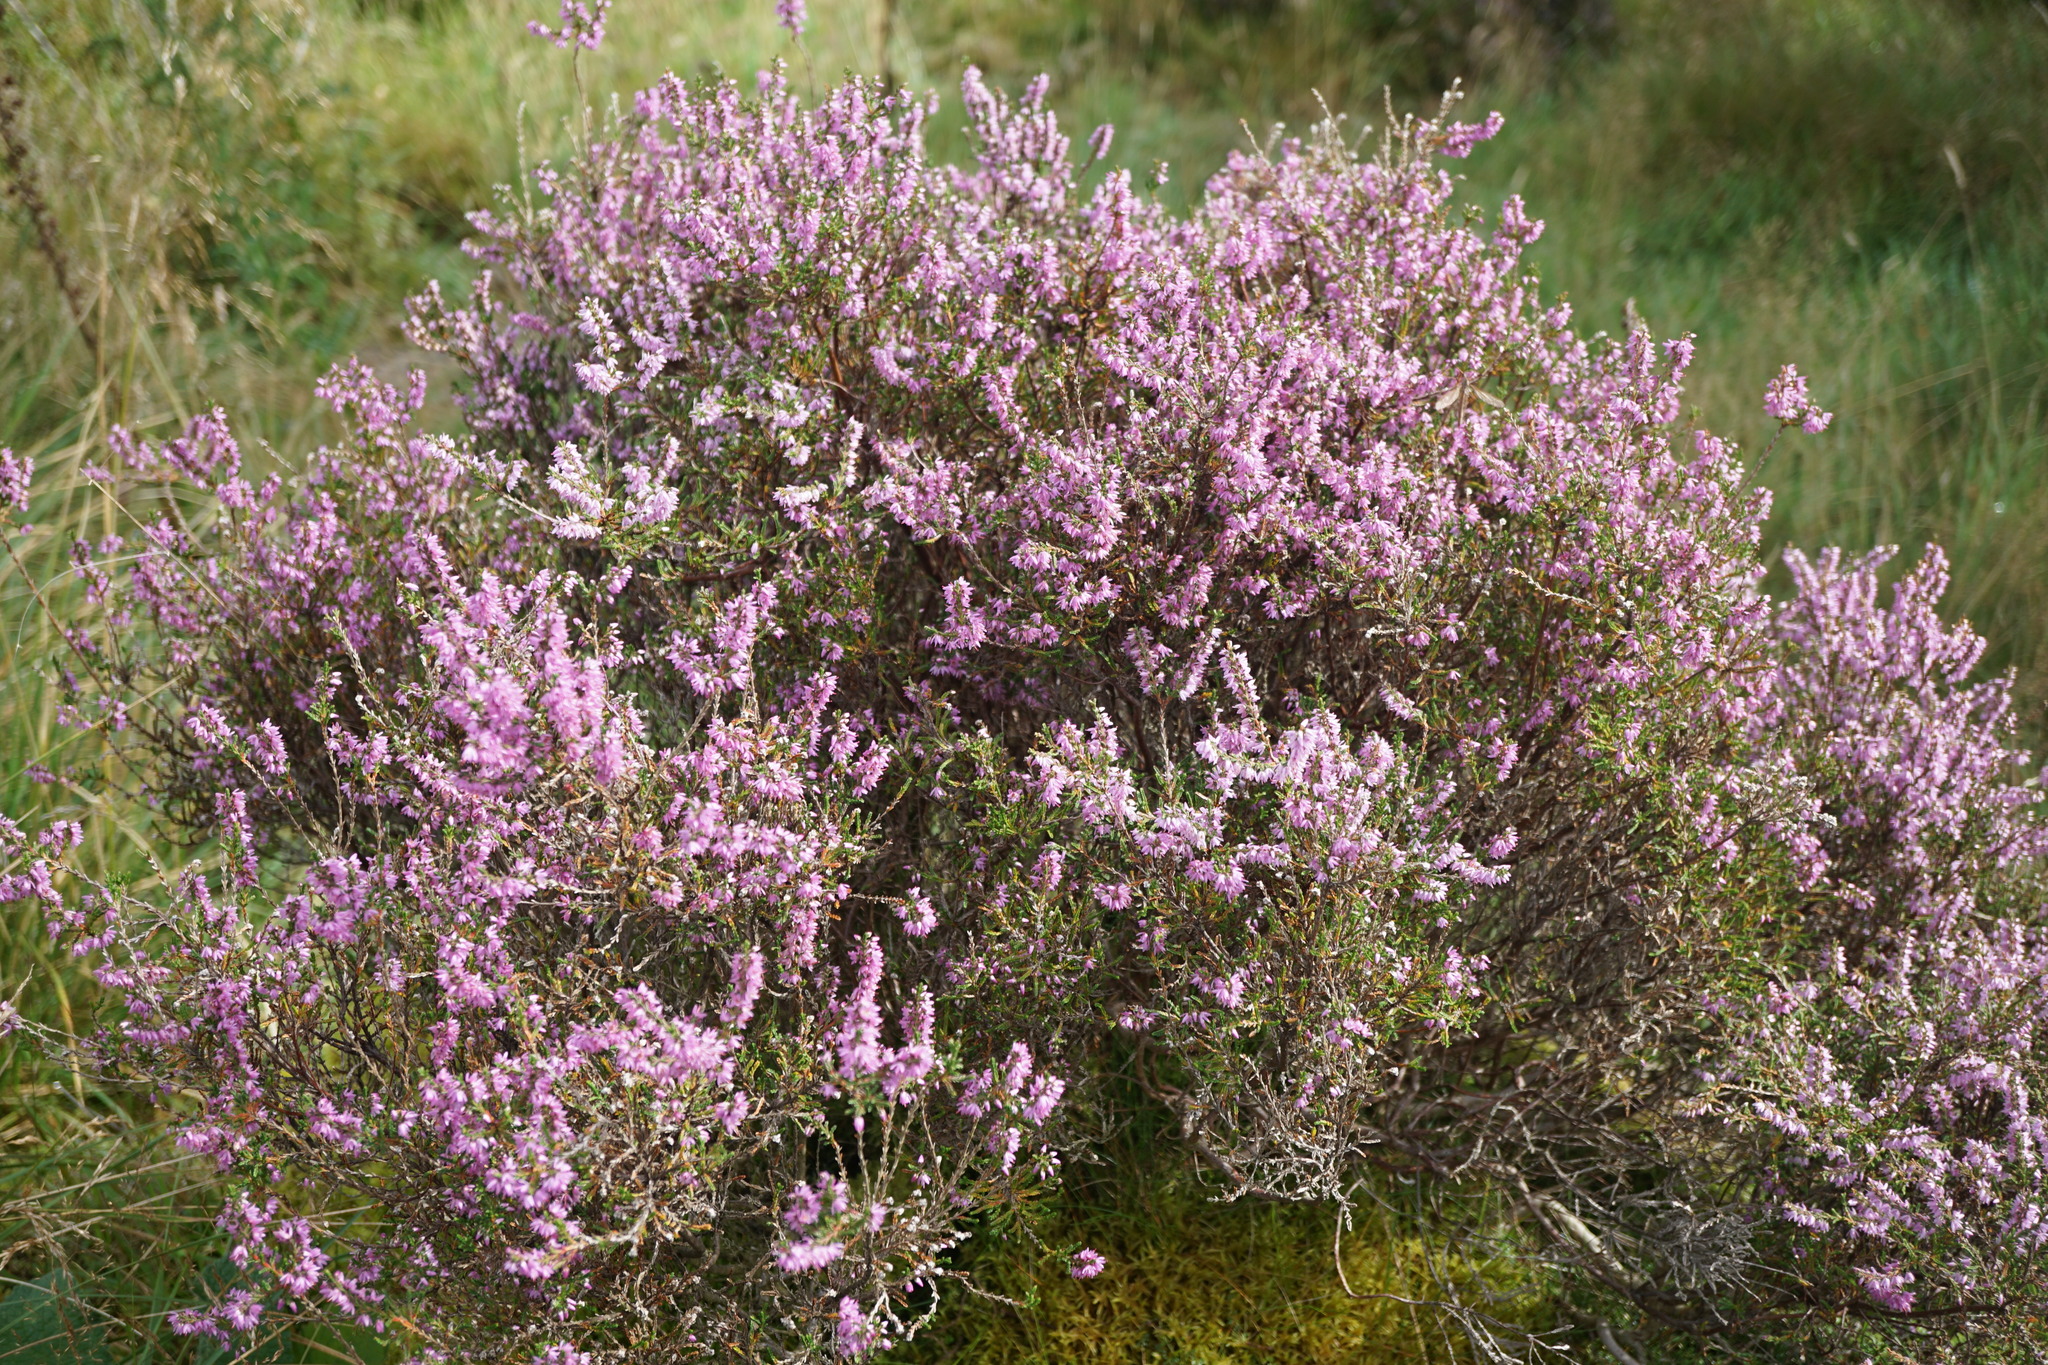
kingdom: Plantae
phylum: Tracheophyta
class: Magnoliopsida
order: Ericales
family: Ericaceae
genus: Calluna
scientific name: Calluna vulgaris
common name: Heather
